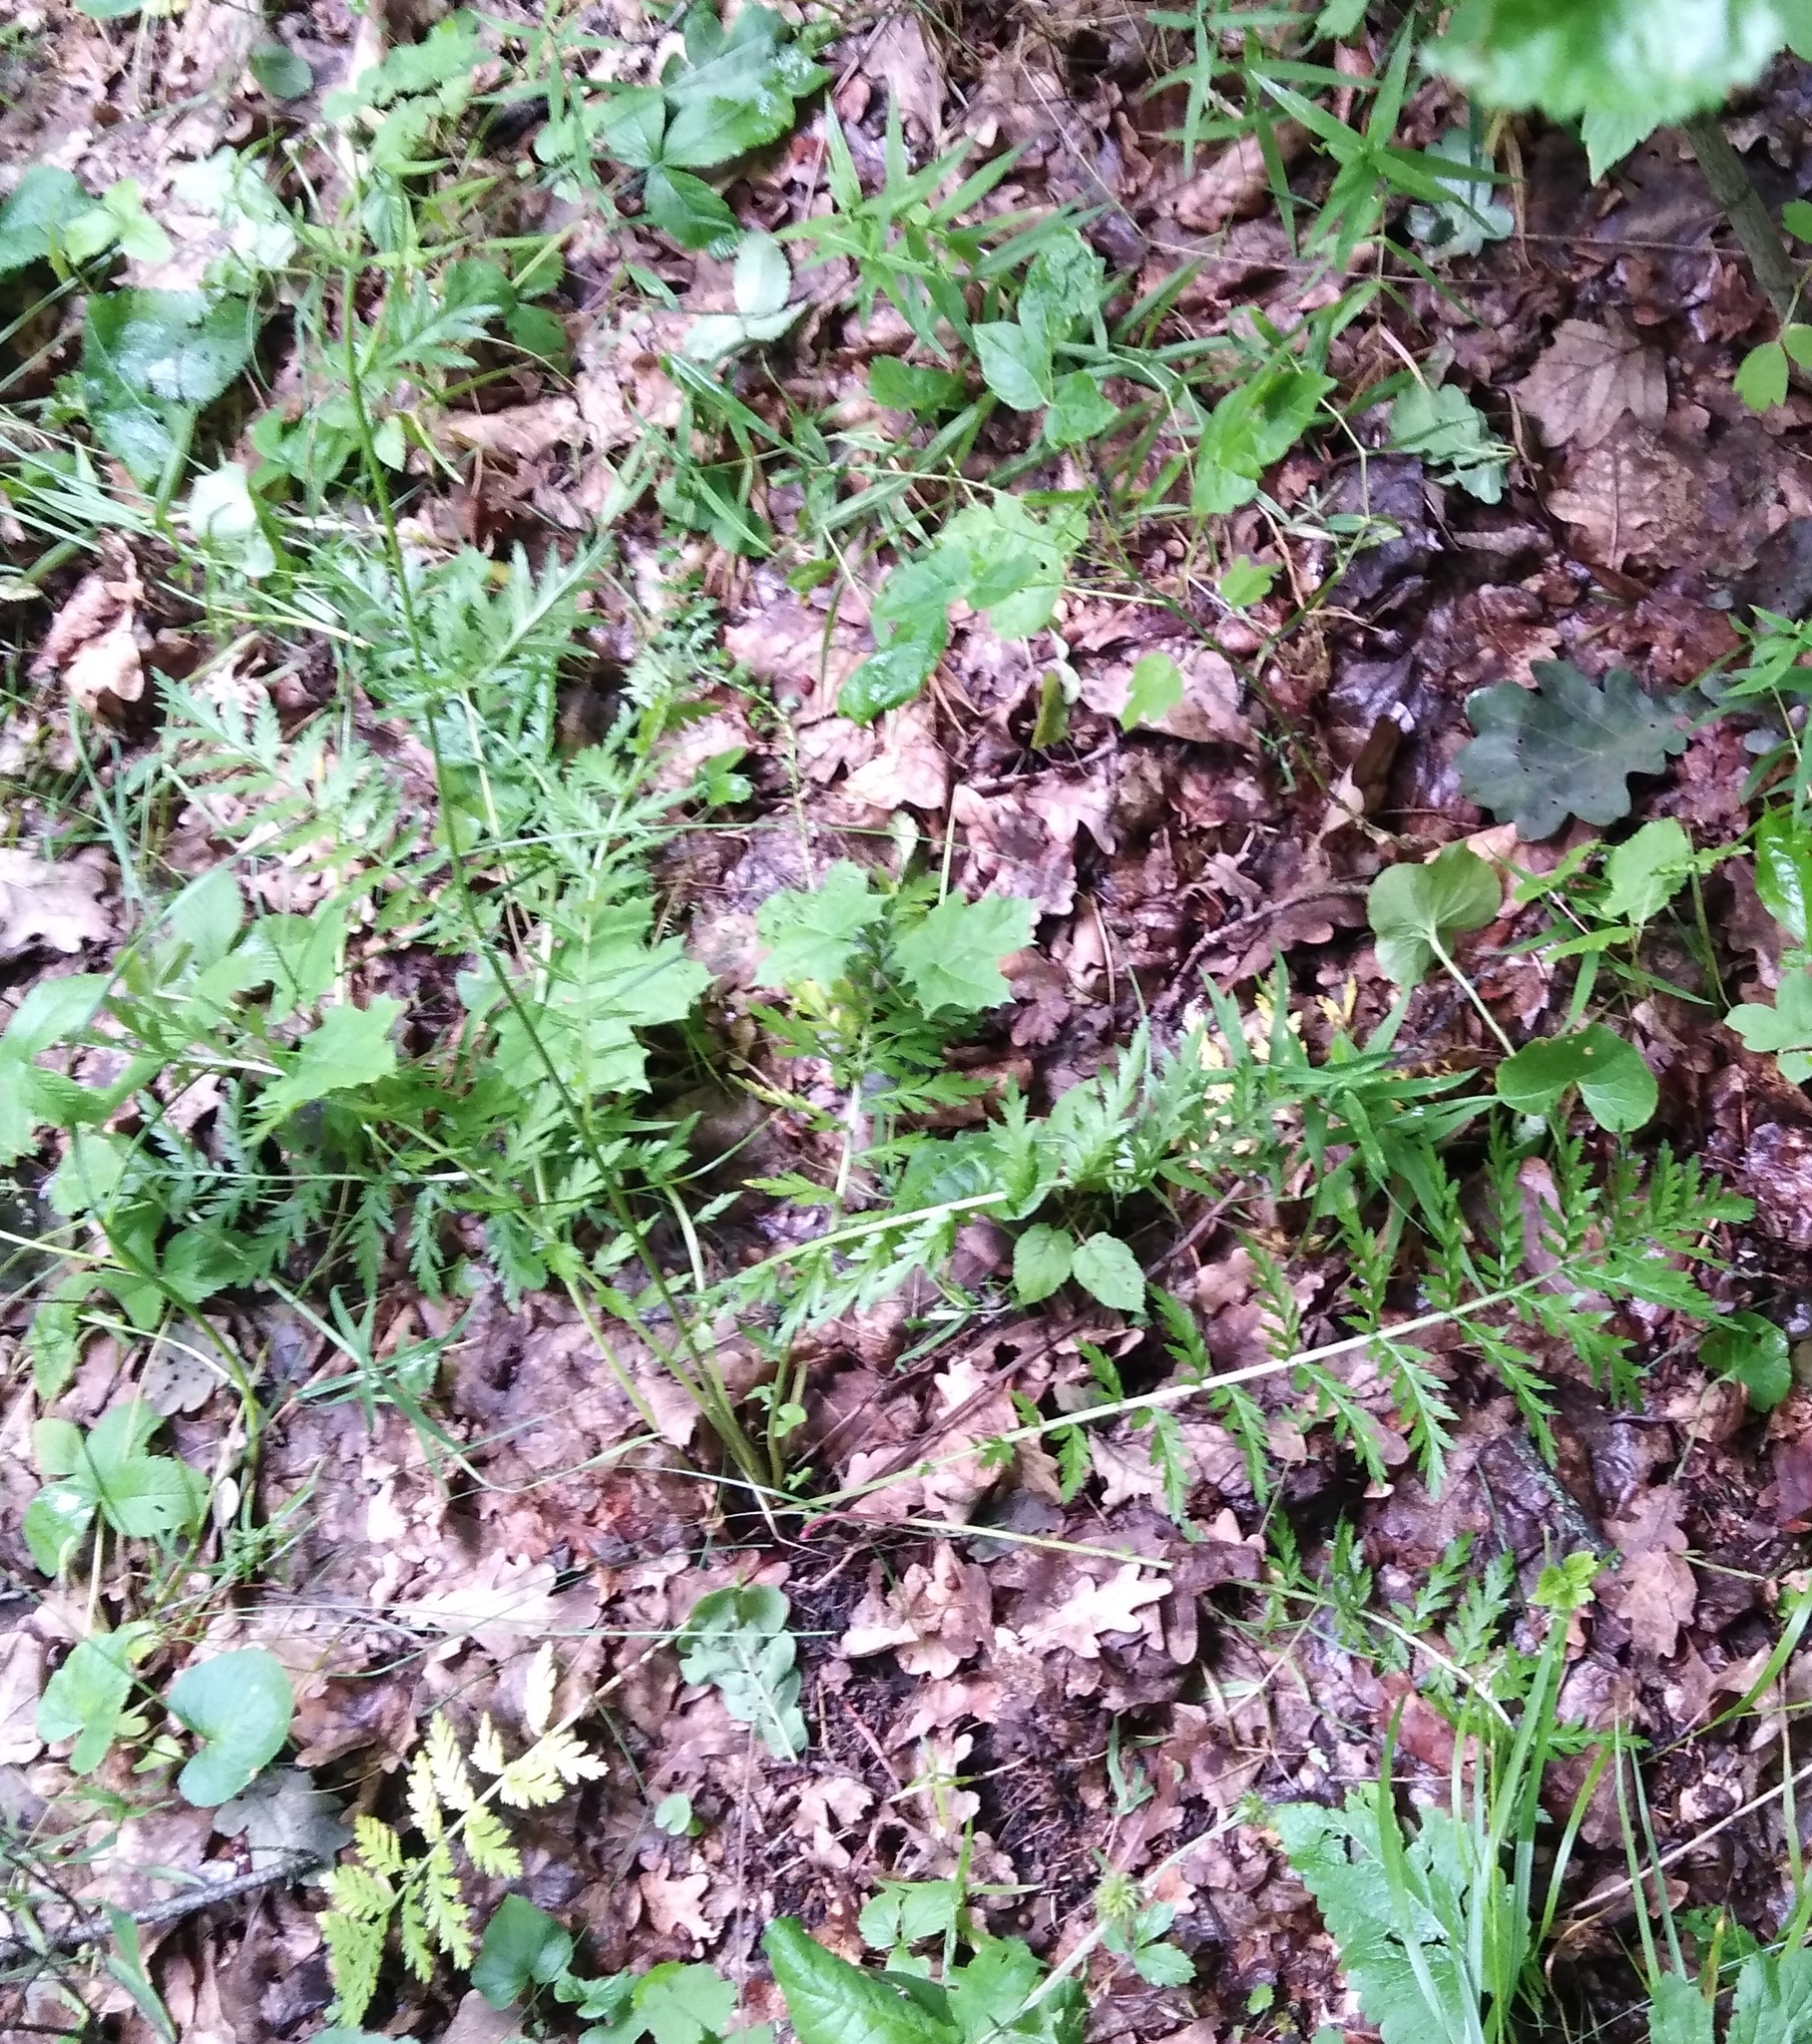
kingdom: Plantae
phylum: Tracheophyta
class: Magnoliopsida
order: Asterales
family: Asteraceae
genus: Tanacetum
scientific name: Tanacetum corymbosum
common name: Scentless feverfew
